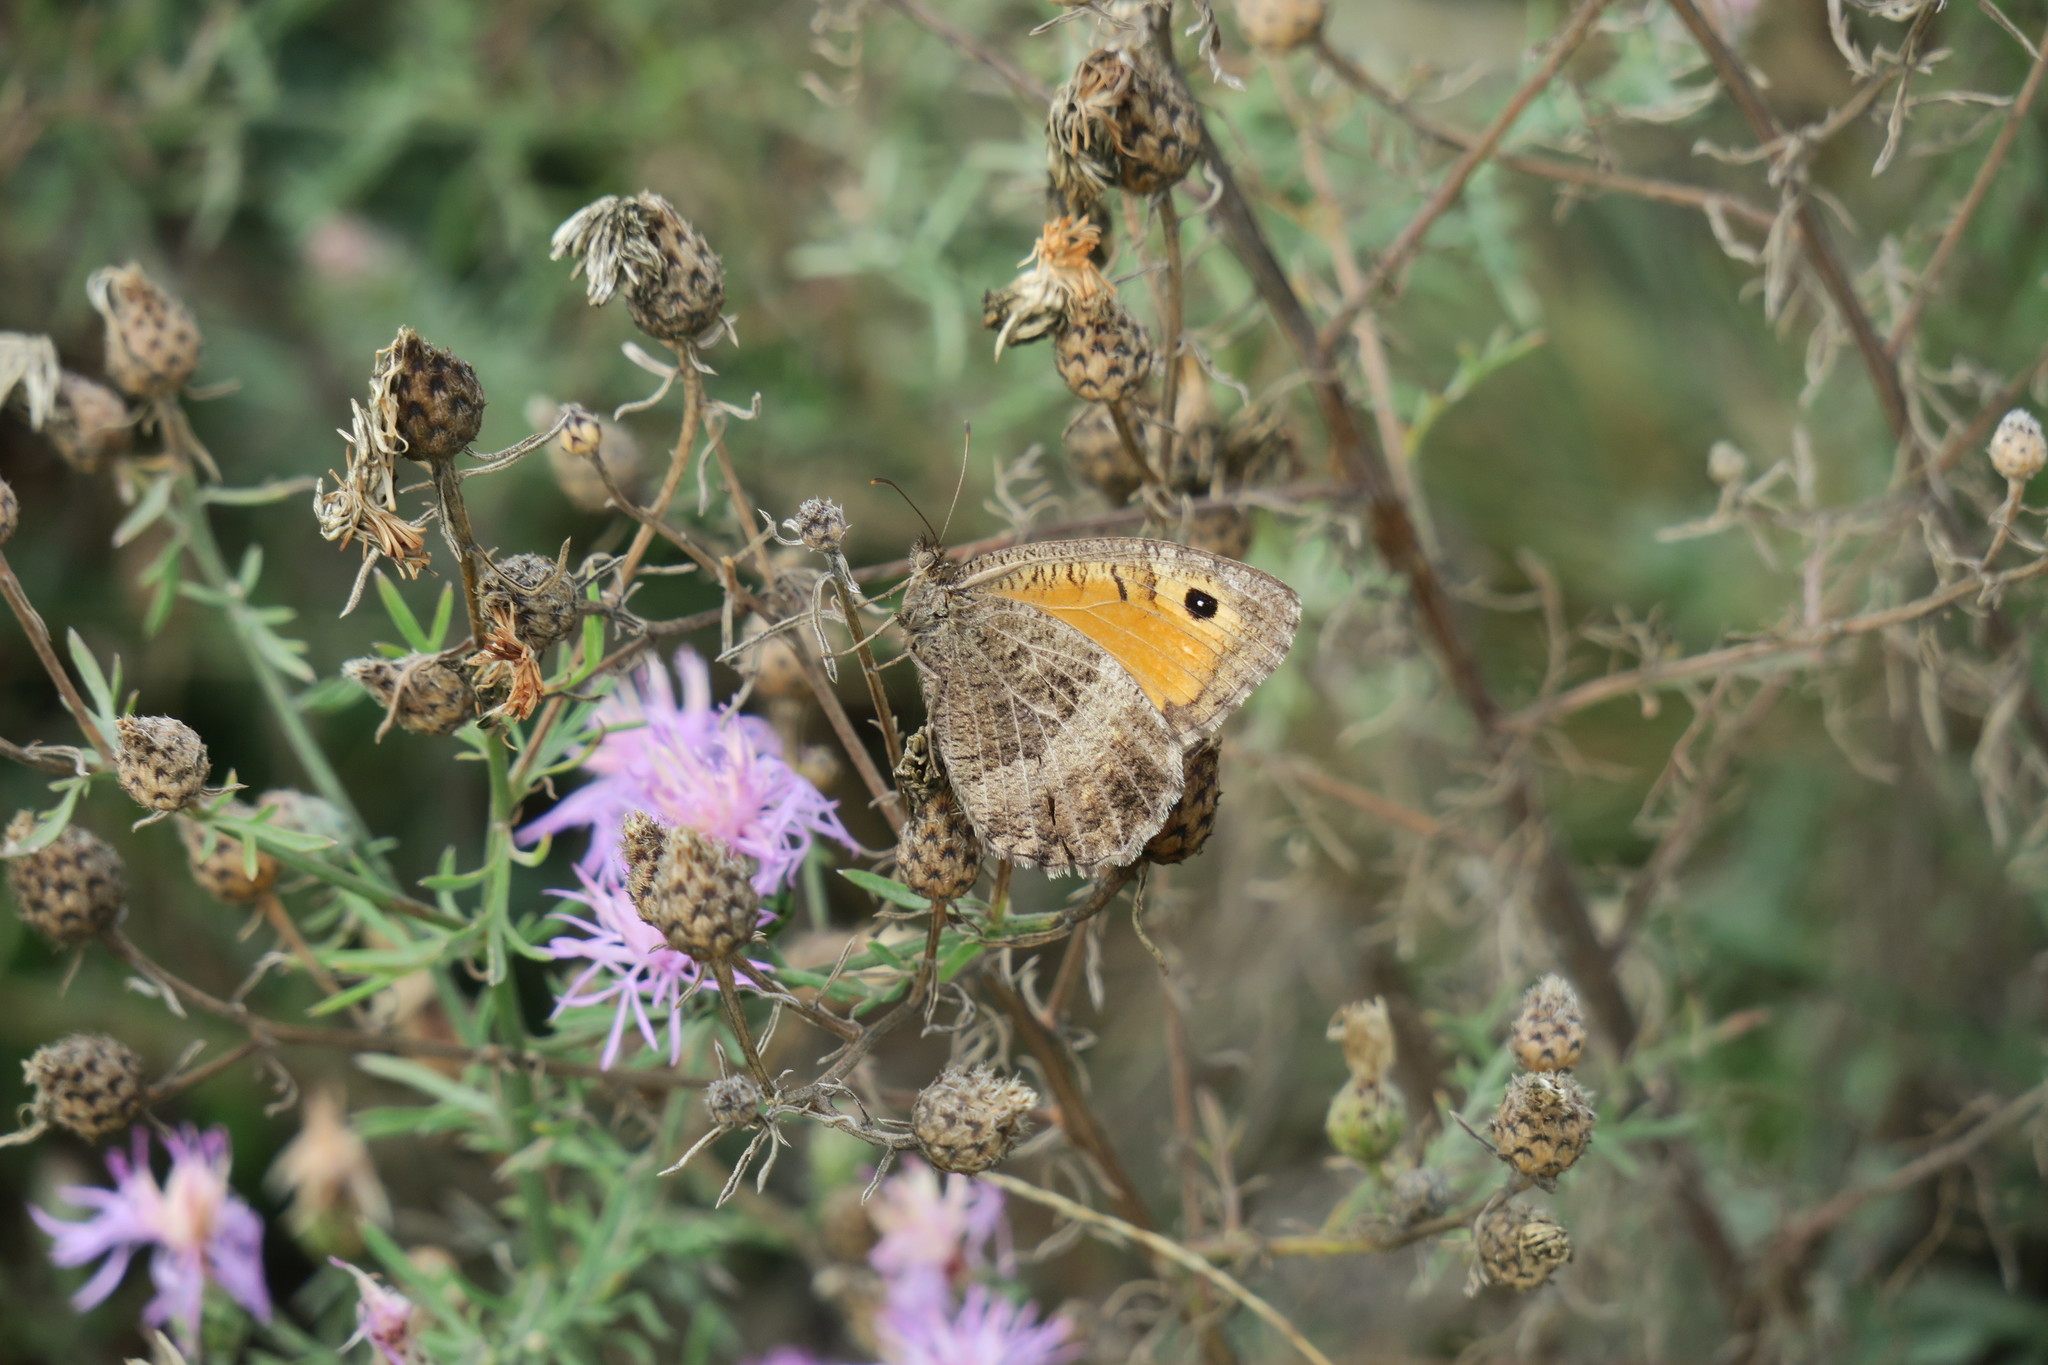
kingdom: Animalia
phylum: Arthropoda
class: Insecta
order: Lepidoptera
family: Nymphalidae
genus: Arethusana
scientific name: Arethusana arethusa
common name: False grayling
